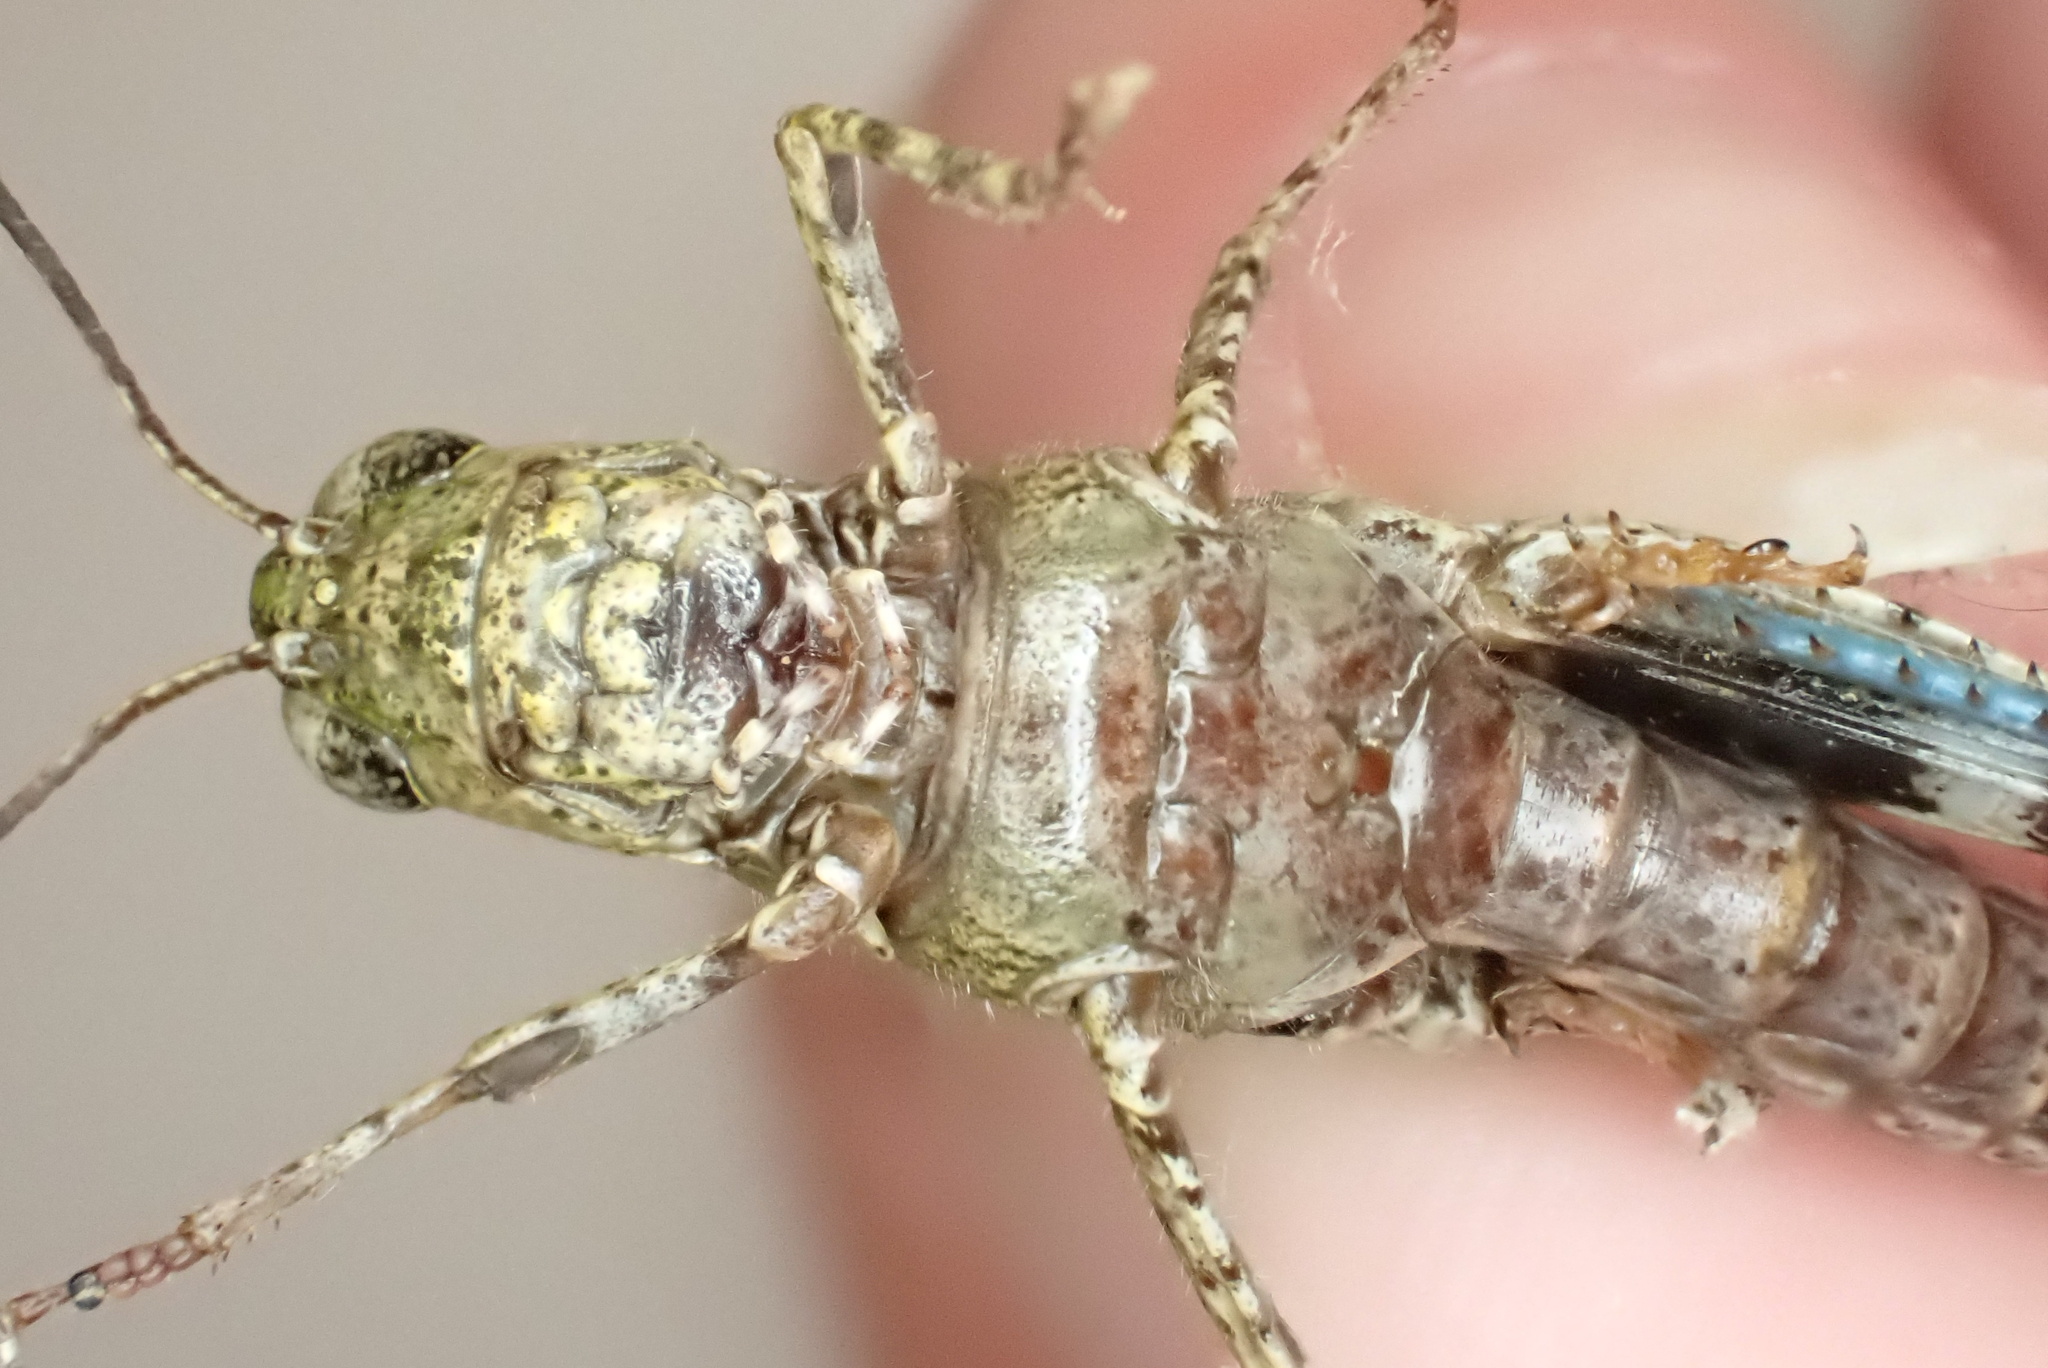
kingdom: Animalia
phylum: Arthropoda
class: Insecta
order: Orthoptera
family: Acrididae
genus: Nebulatettix
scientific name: Nebulatettix subgracilis
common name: Southwestern dusky grasshopper
